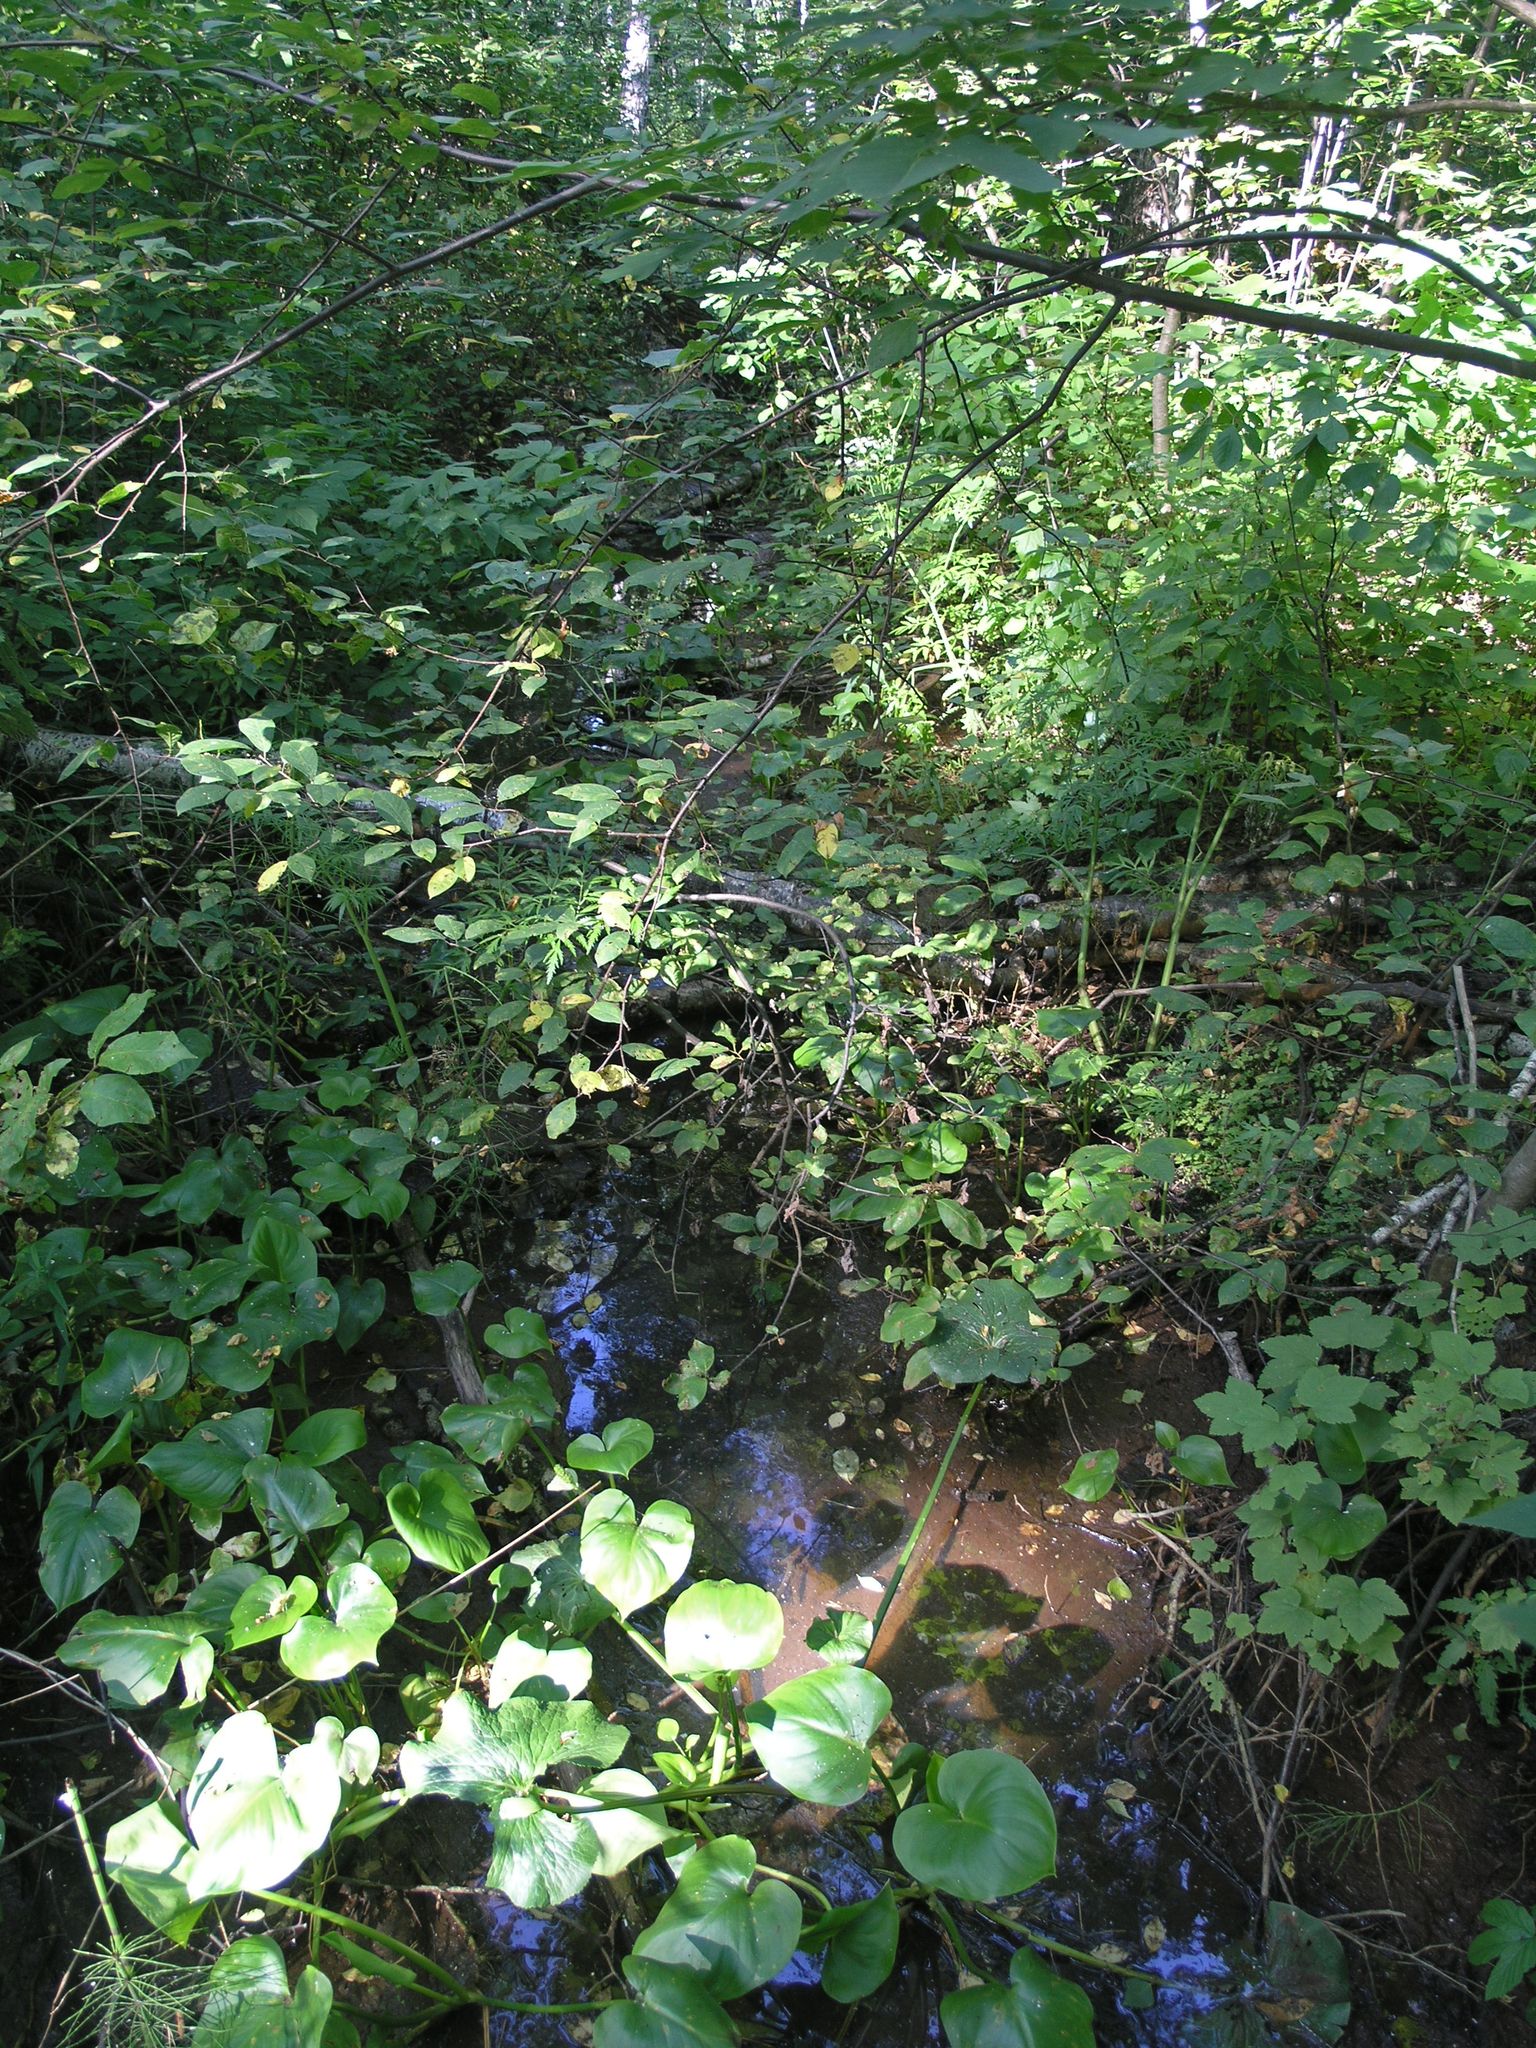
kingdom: Plantae
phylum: Tracheophyta
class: Liliopsida
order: Alismatales
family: Araceae
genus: Calla
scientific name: Calla palustris
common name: Bog arum
